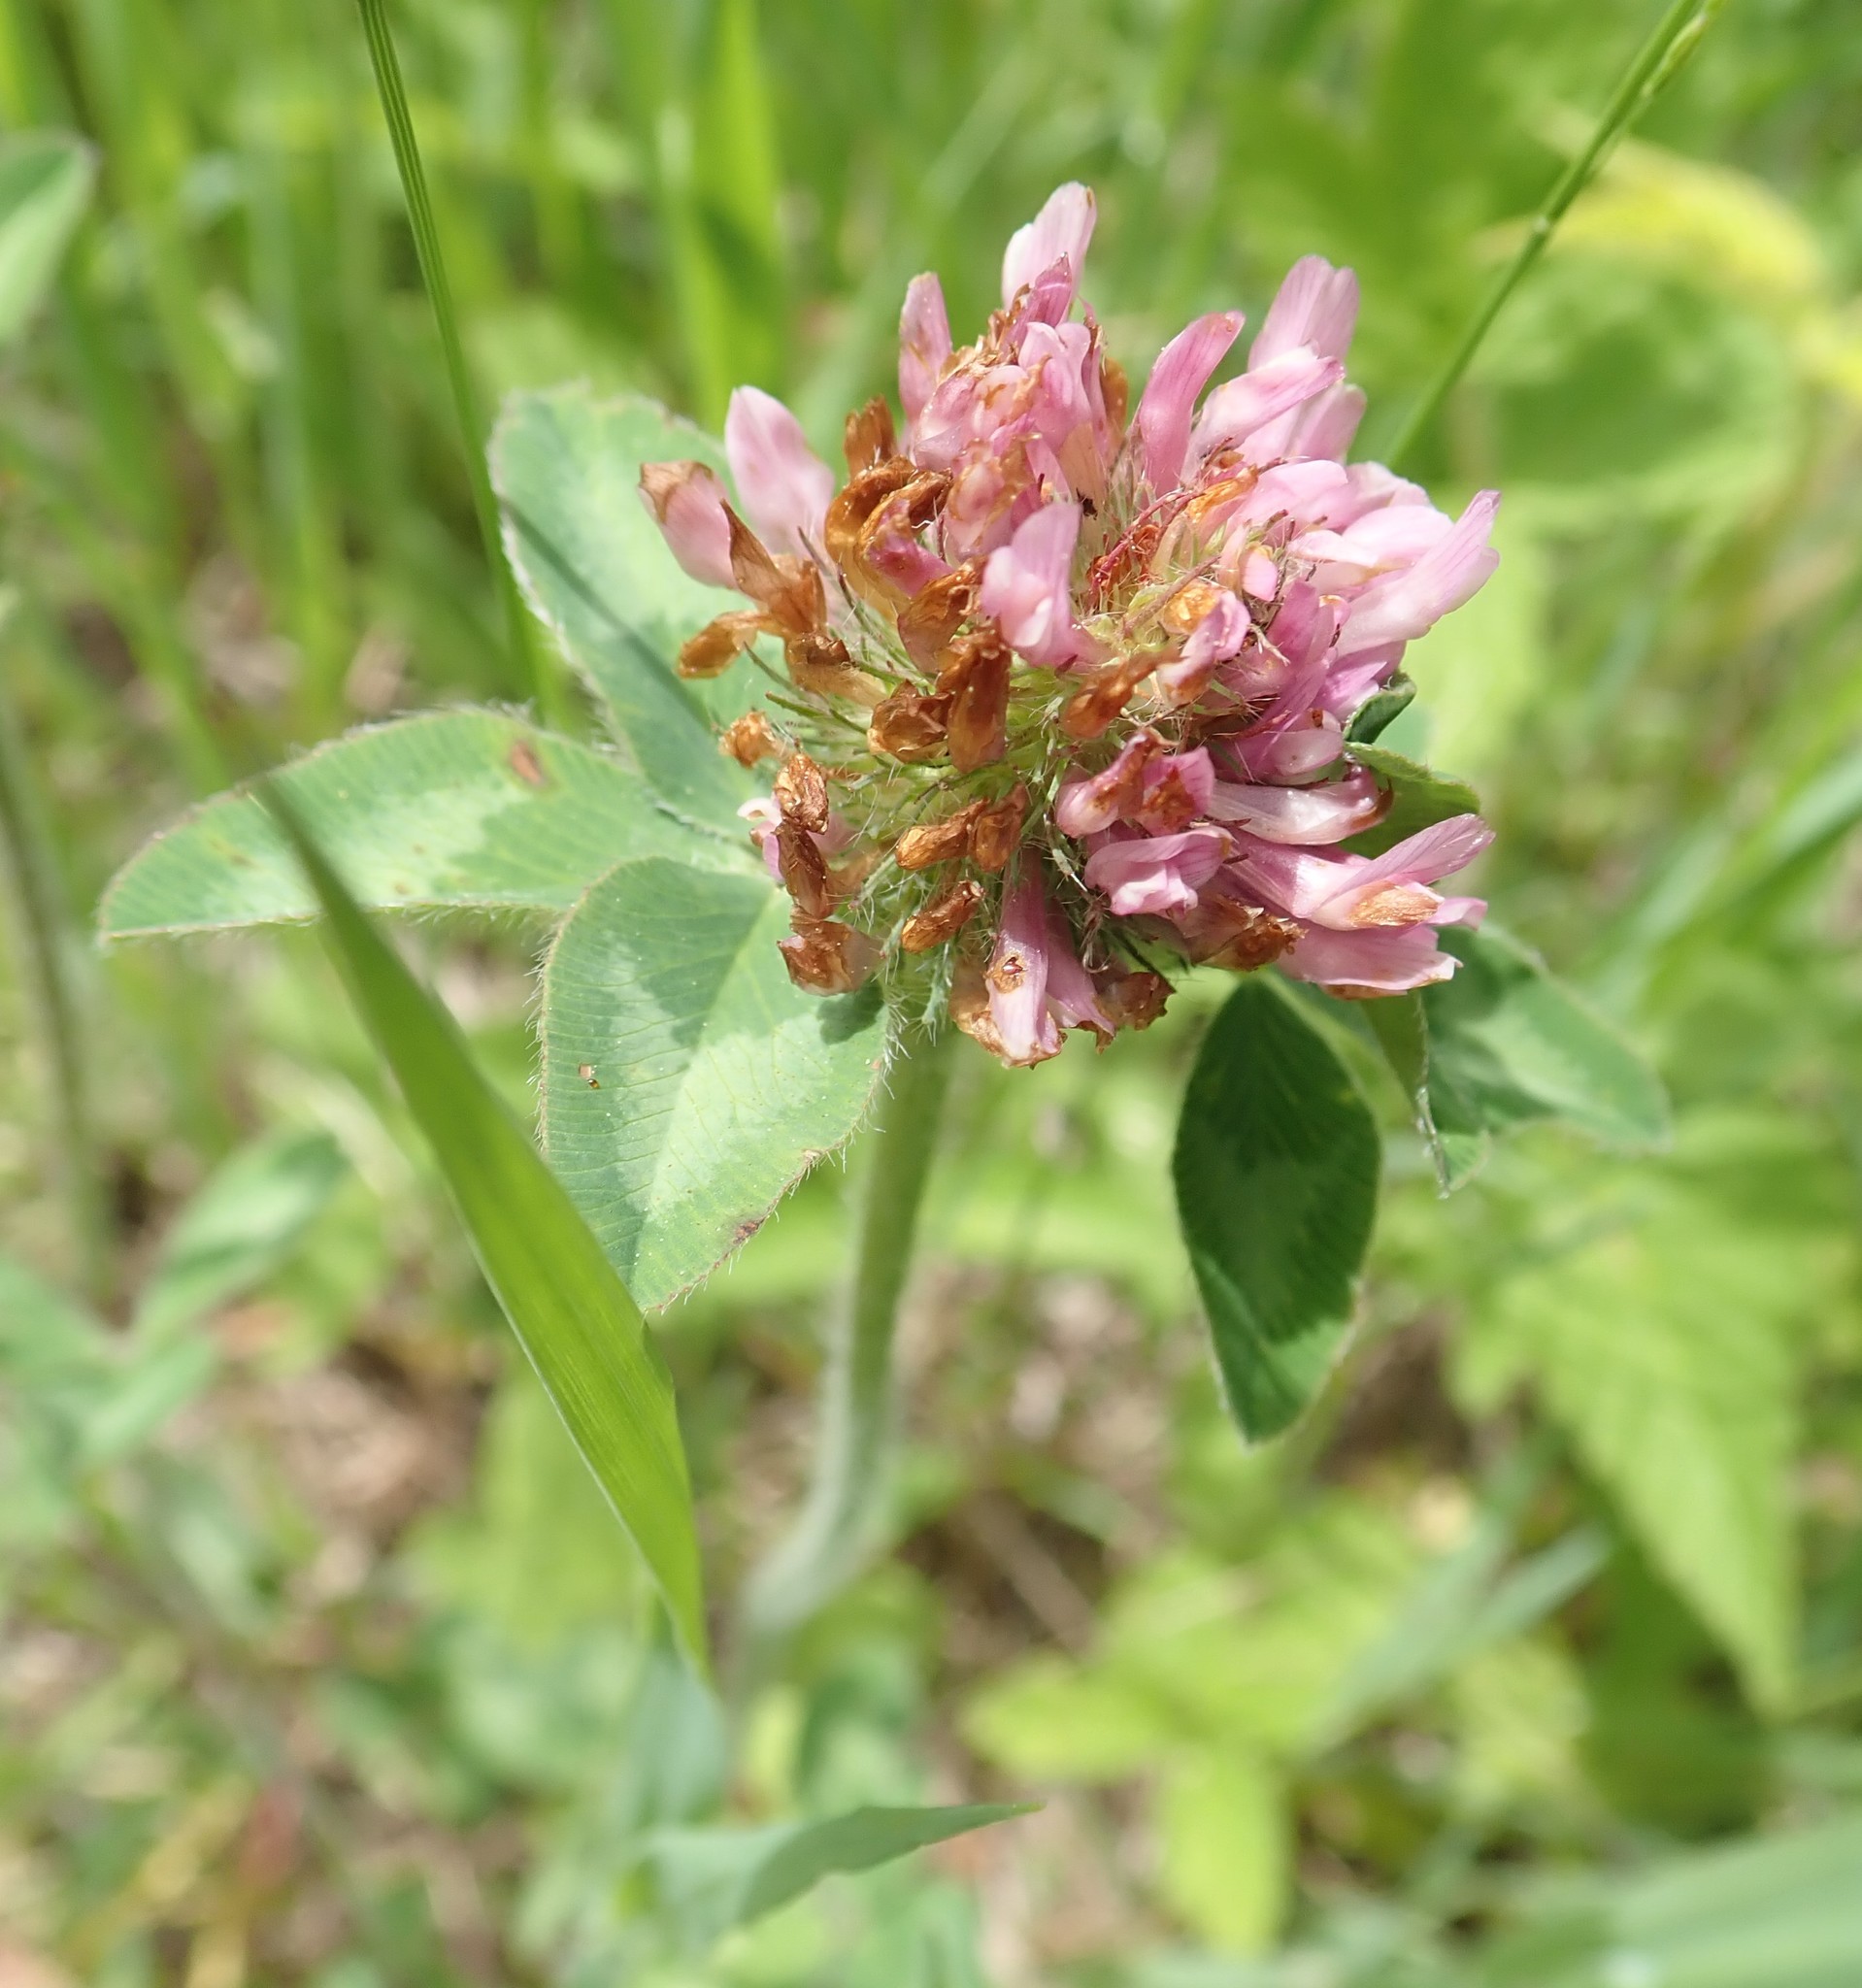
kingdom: Plantae
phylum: Tracheophyta
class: Magnoliopsida
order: Fabales
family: Fabaceae
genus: Trifolium
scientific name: Trifolium pratense
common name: Red clover
